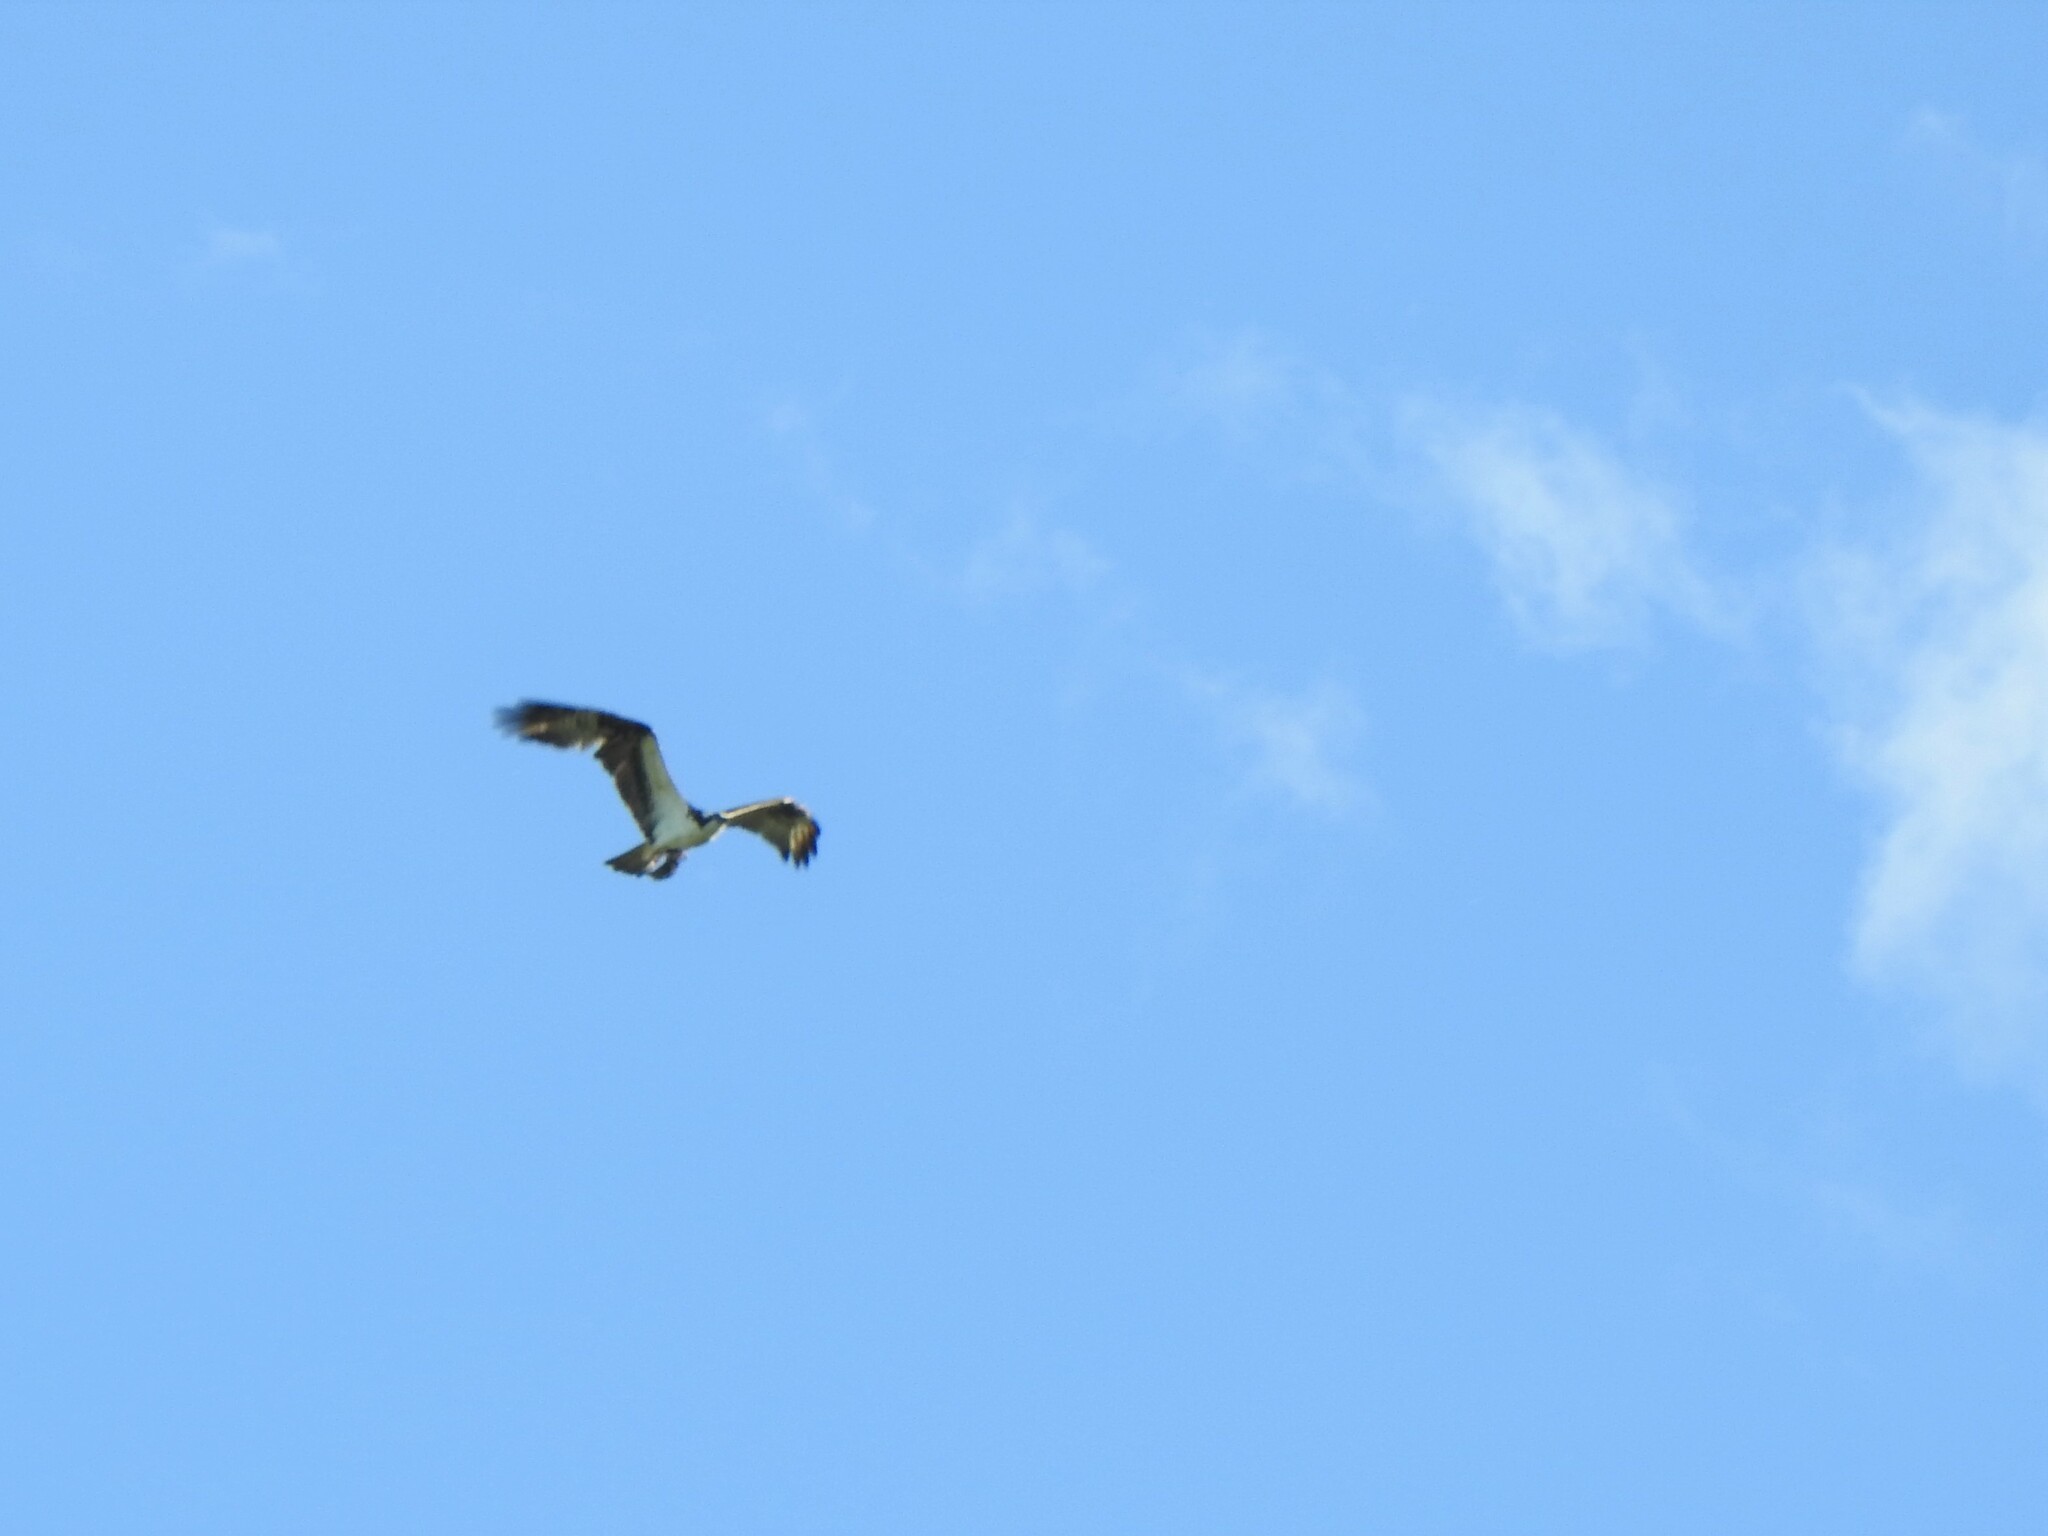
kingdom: Animalia
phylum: Chordata
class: Aves
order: Accipitriformes
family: Pandionidae
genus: Pandion
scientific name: Pandion haliaetus
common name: Osprey
